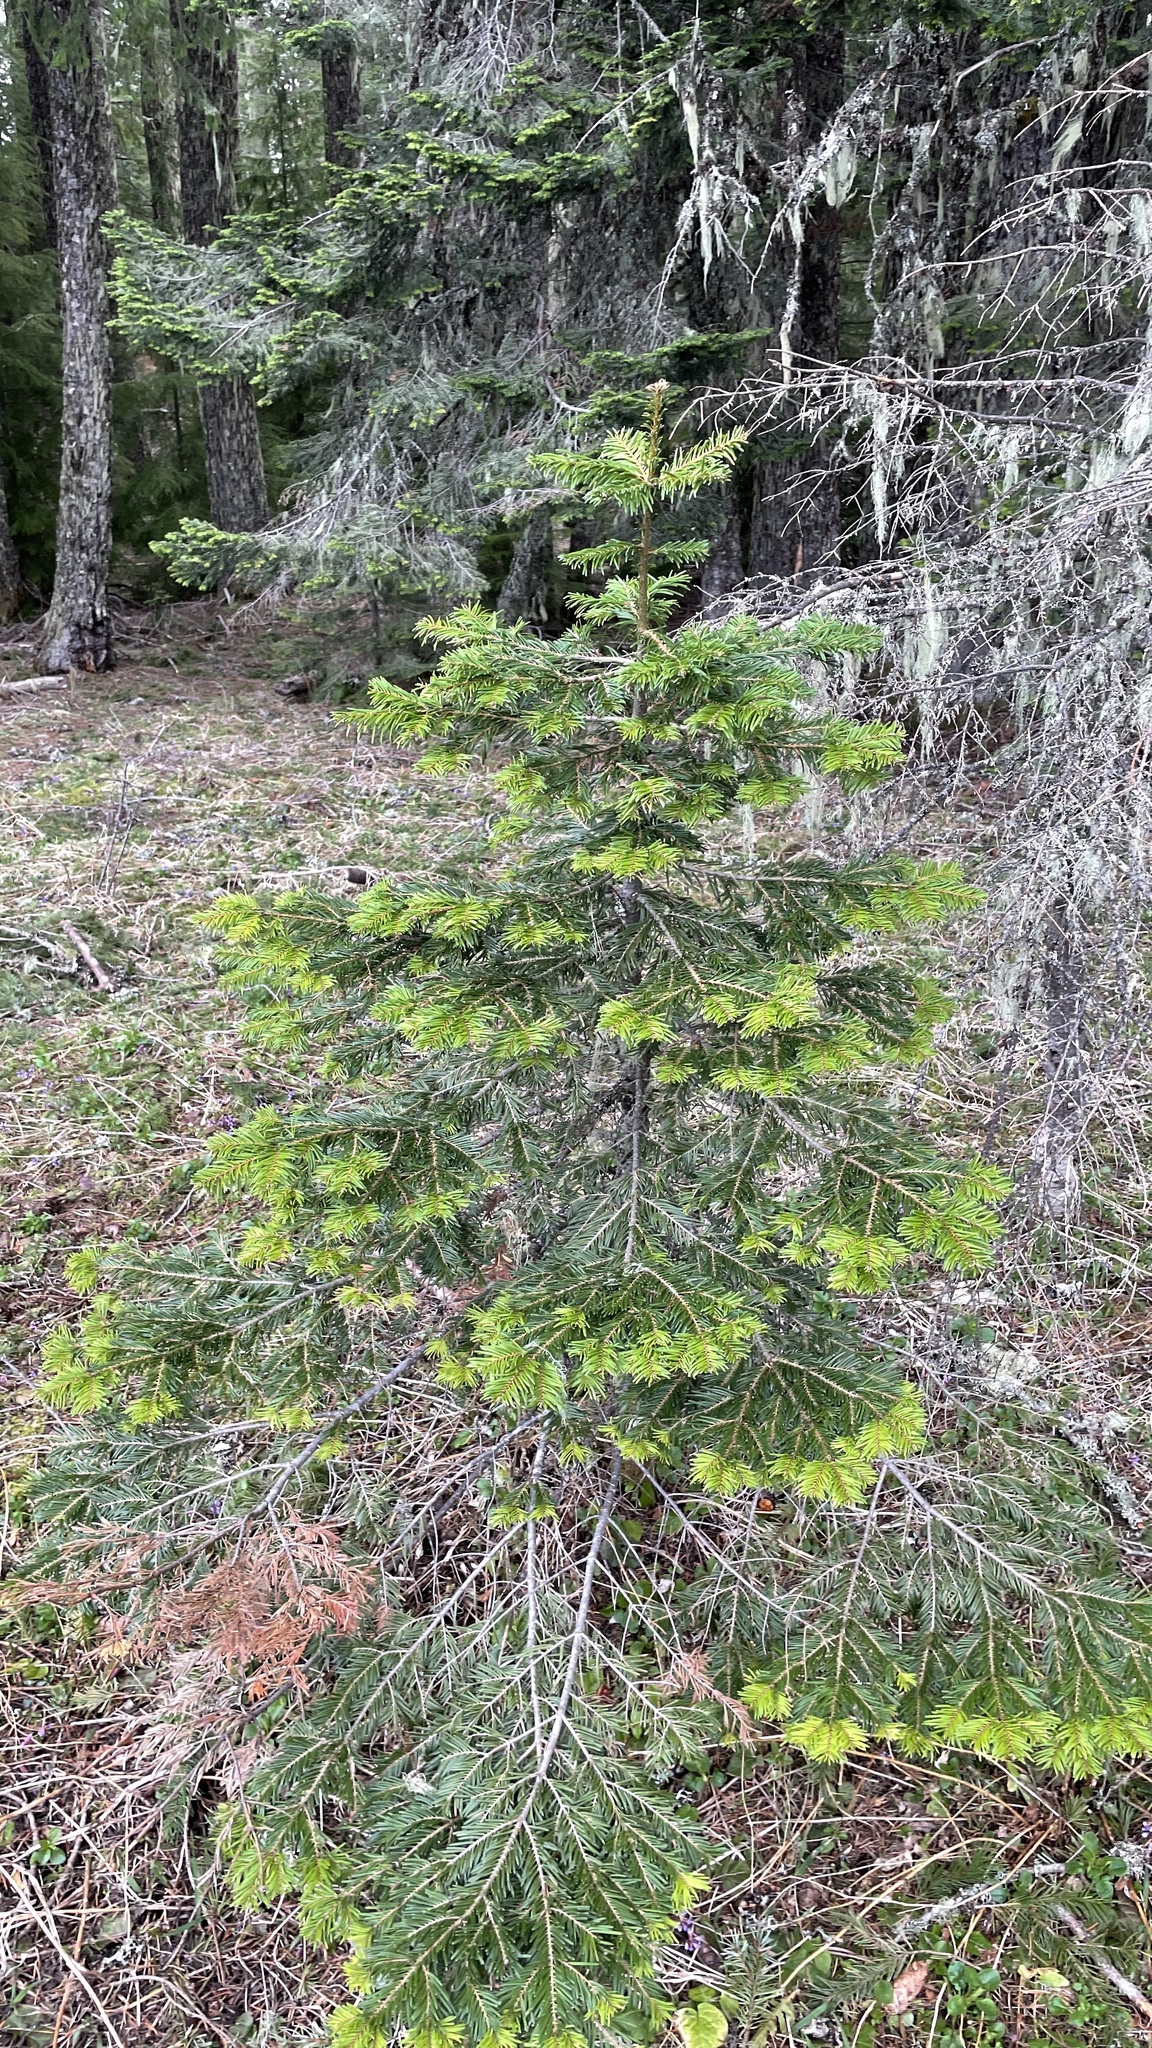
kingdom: Plantae
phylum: Tracheophyta
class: Pinopsida
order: Pinales
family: Pinaceae
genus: Abies
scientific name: Abies concolor
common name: Colorado fir
